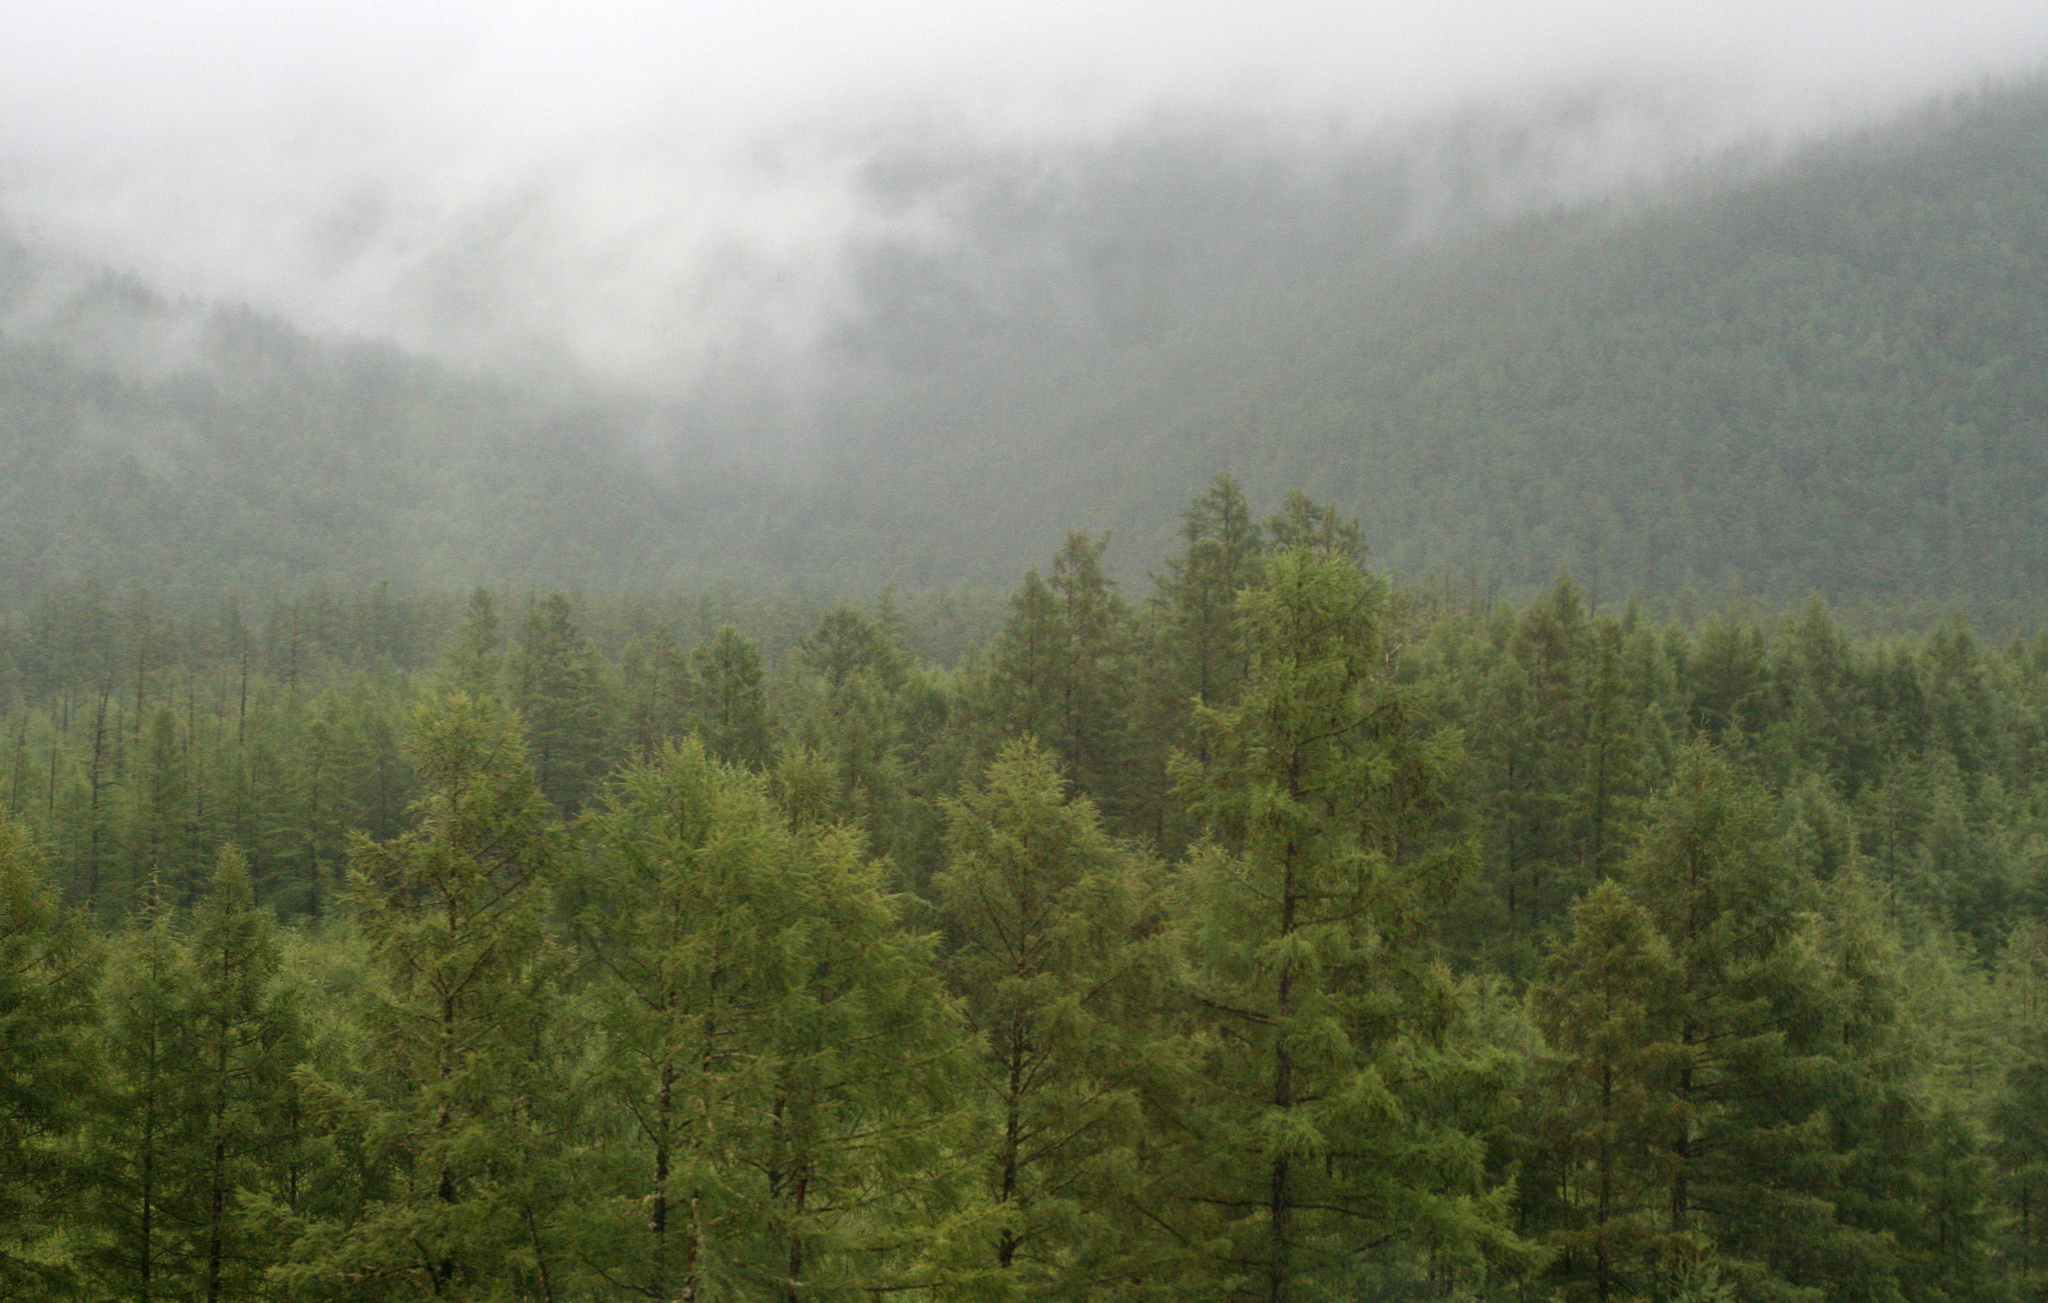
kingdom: Plantae
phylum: Tracheophyta
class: Pinopsida
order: Pinales
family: Pinaceae
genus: Larix
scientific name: Larix gmelinii
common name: Dahurian larch
